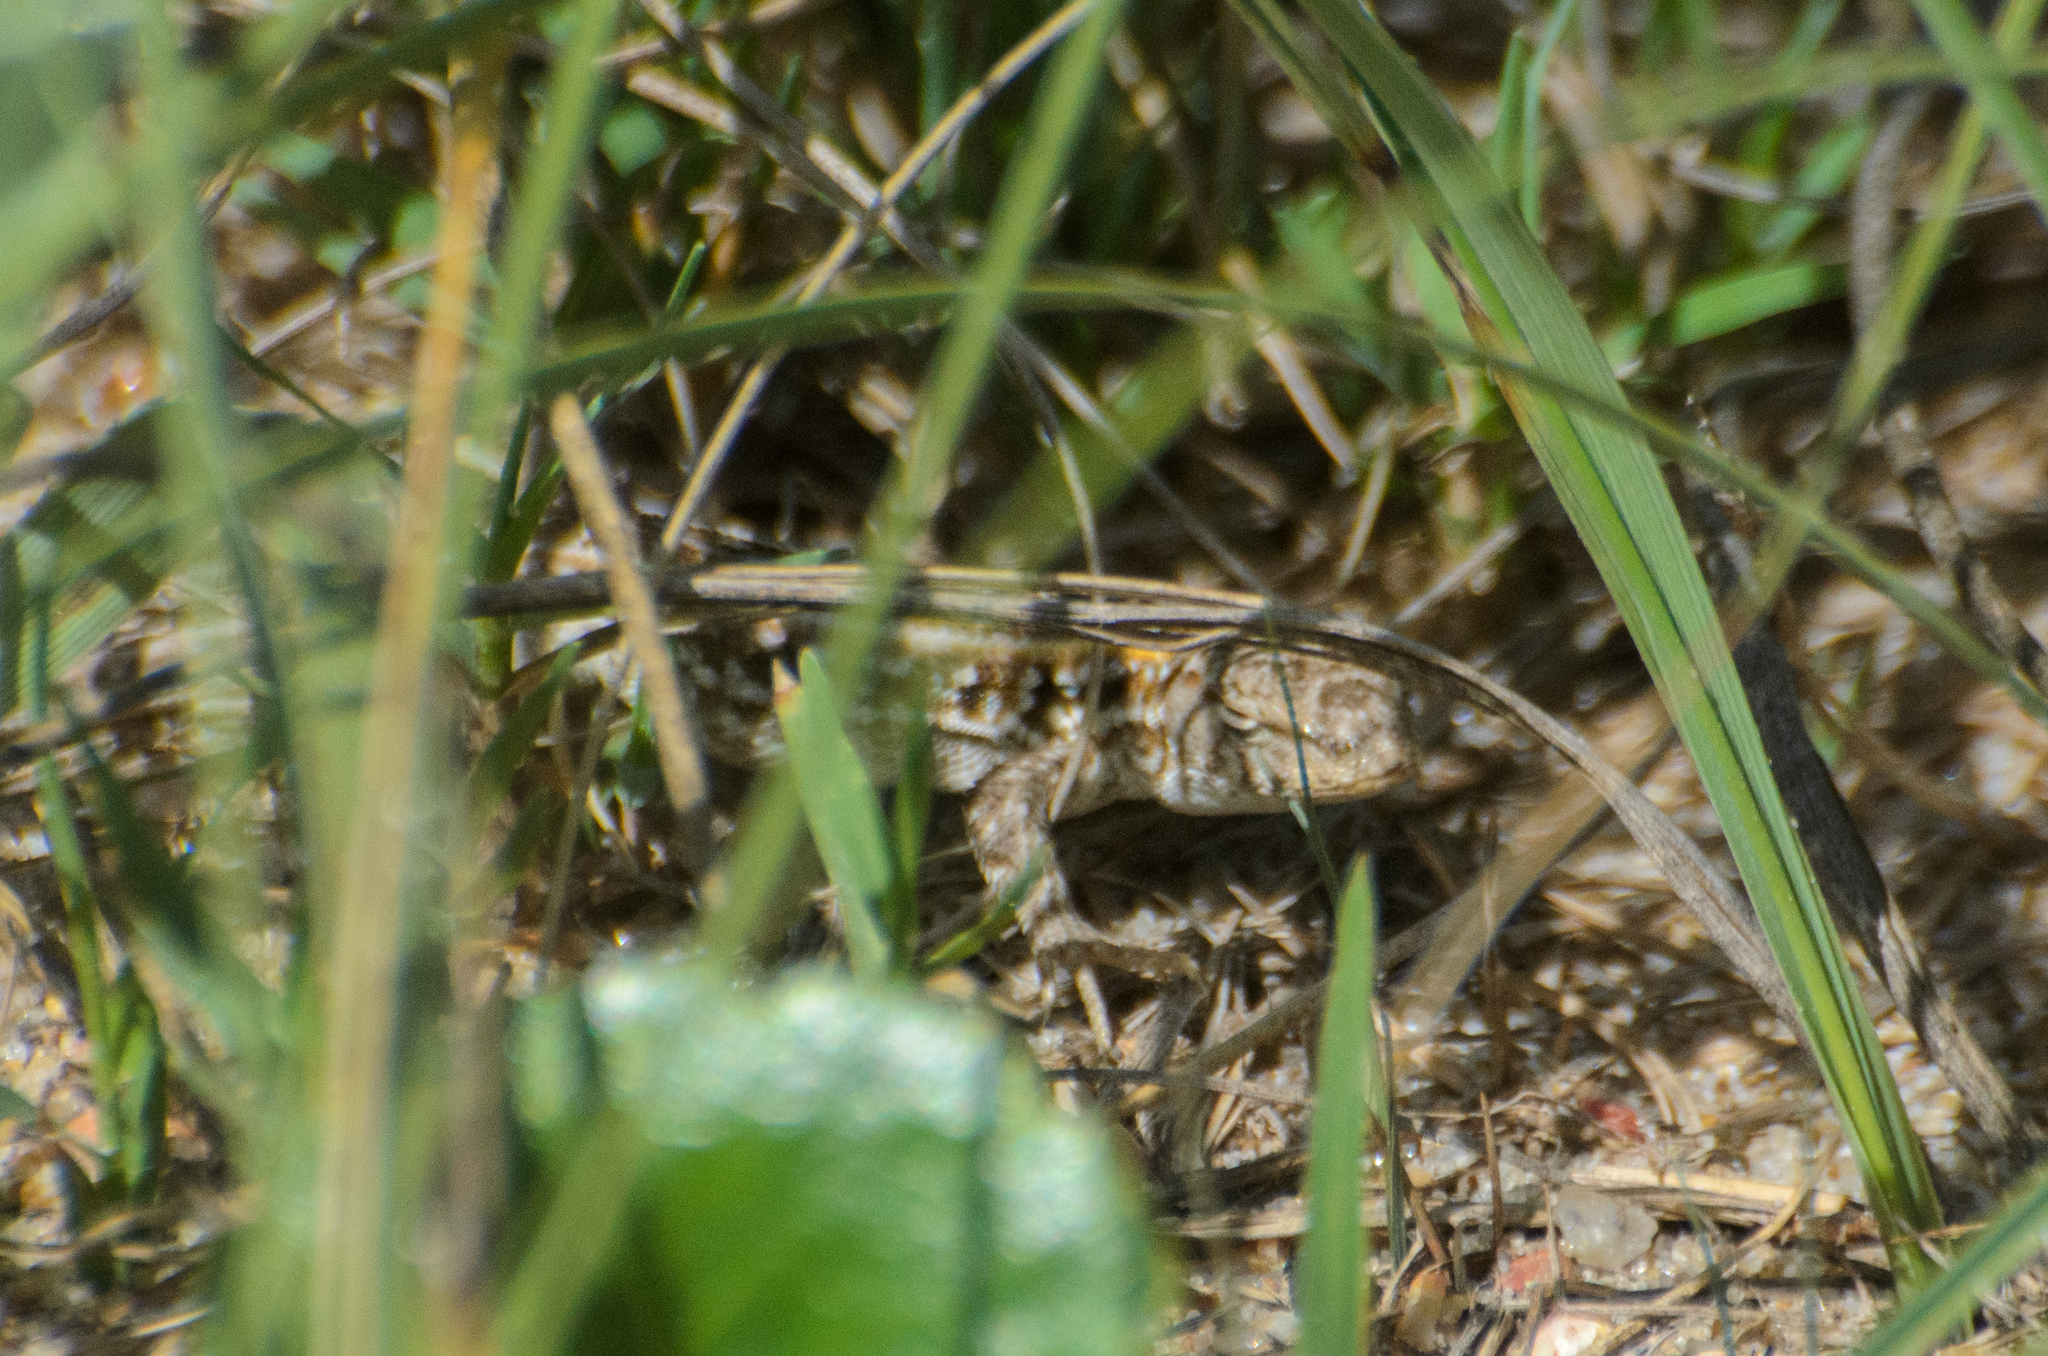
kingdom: Animalia
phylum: Chordata
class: Squamata
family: Liolaemidae
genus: Liolaemus
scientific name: Liolaemus wiegmannii
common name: Wiegmann's tree iguana
